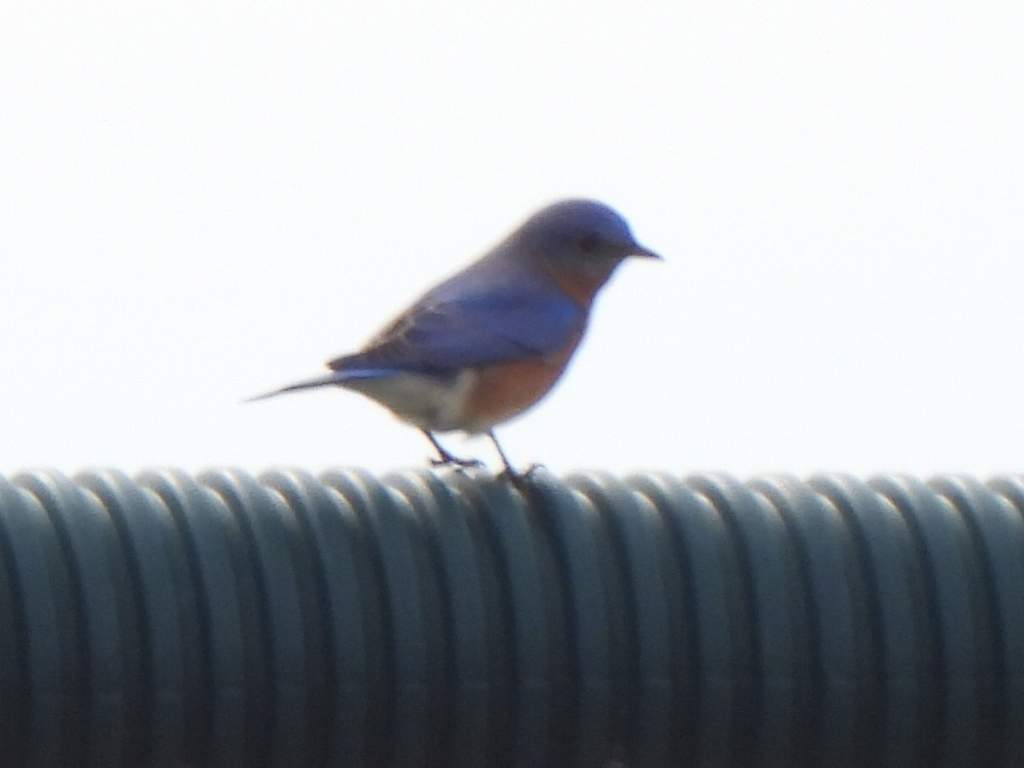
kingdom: Animalia
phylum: Chordata
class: Aves
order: Passeriformes
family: Turdidae
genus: Sialia
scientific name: Sialia sialis
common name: Eastern bluebird
